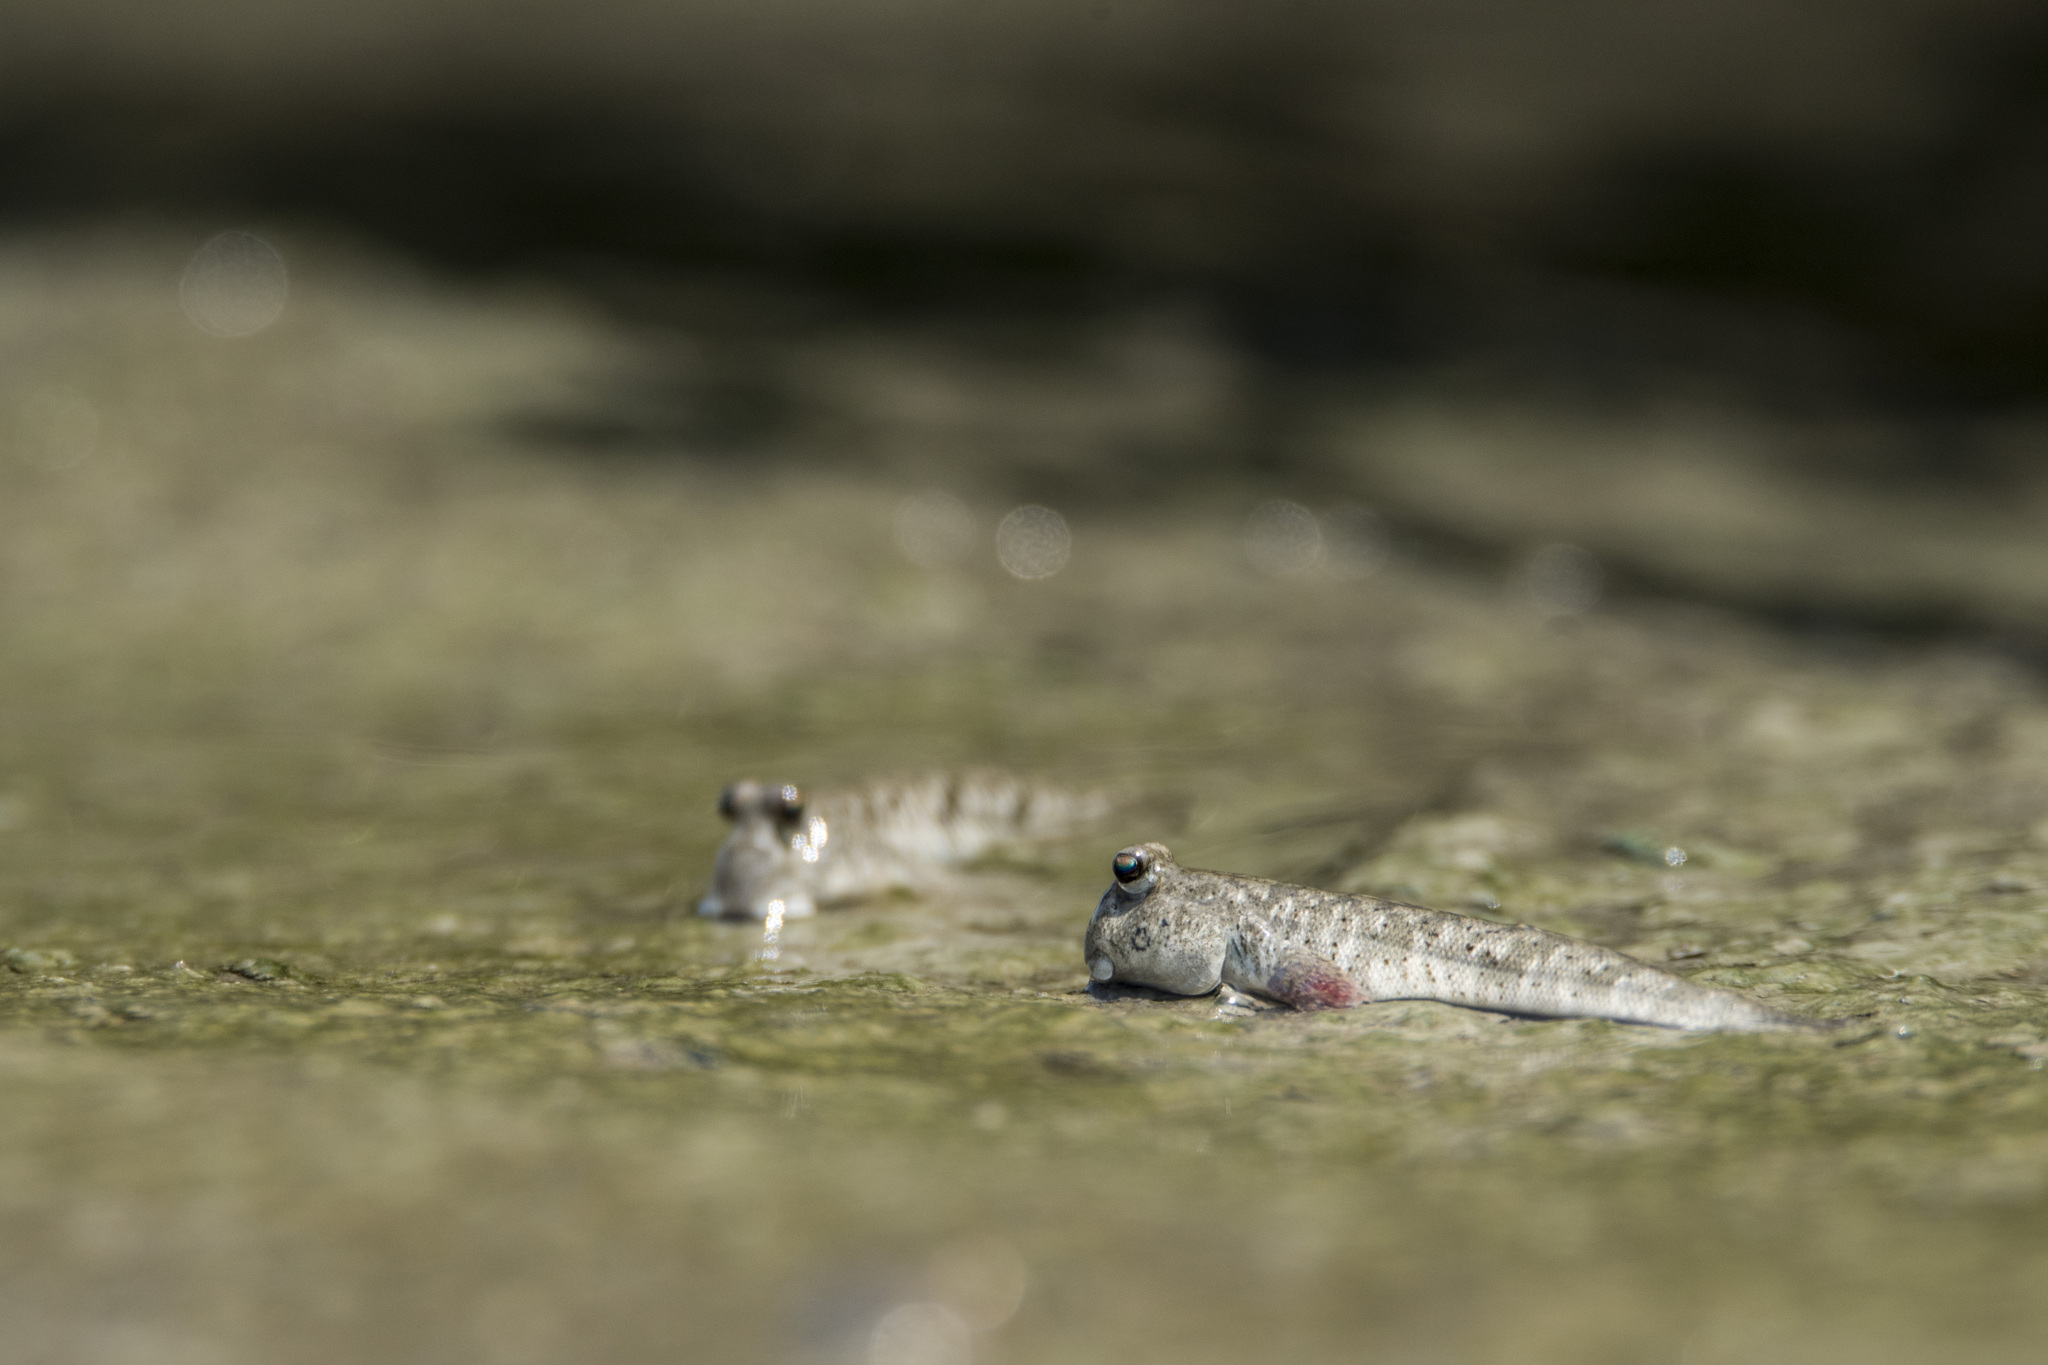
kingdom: Animalia
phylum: Chordata
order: Perciformes
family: Gobiidae
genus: Periophthalmus
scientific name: Periophthalmus modestus
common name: Black goby
